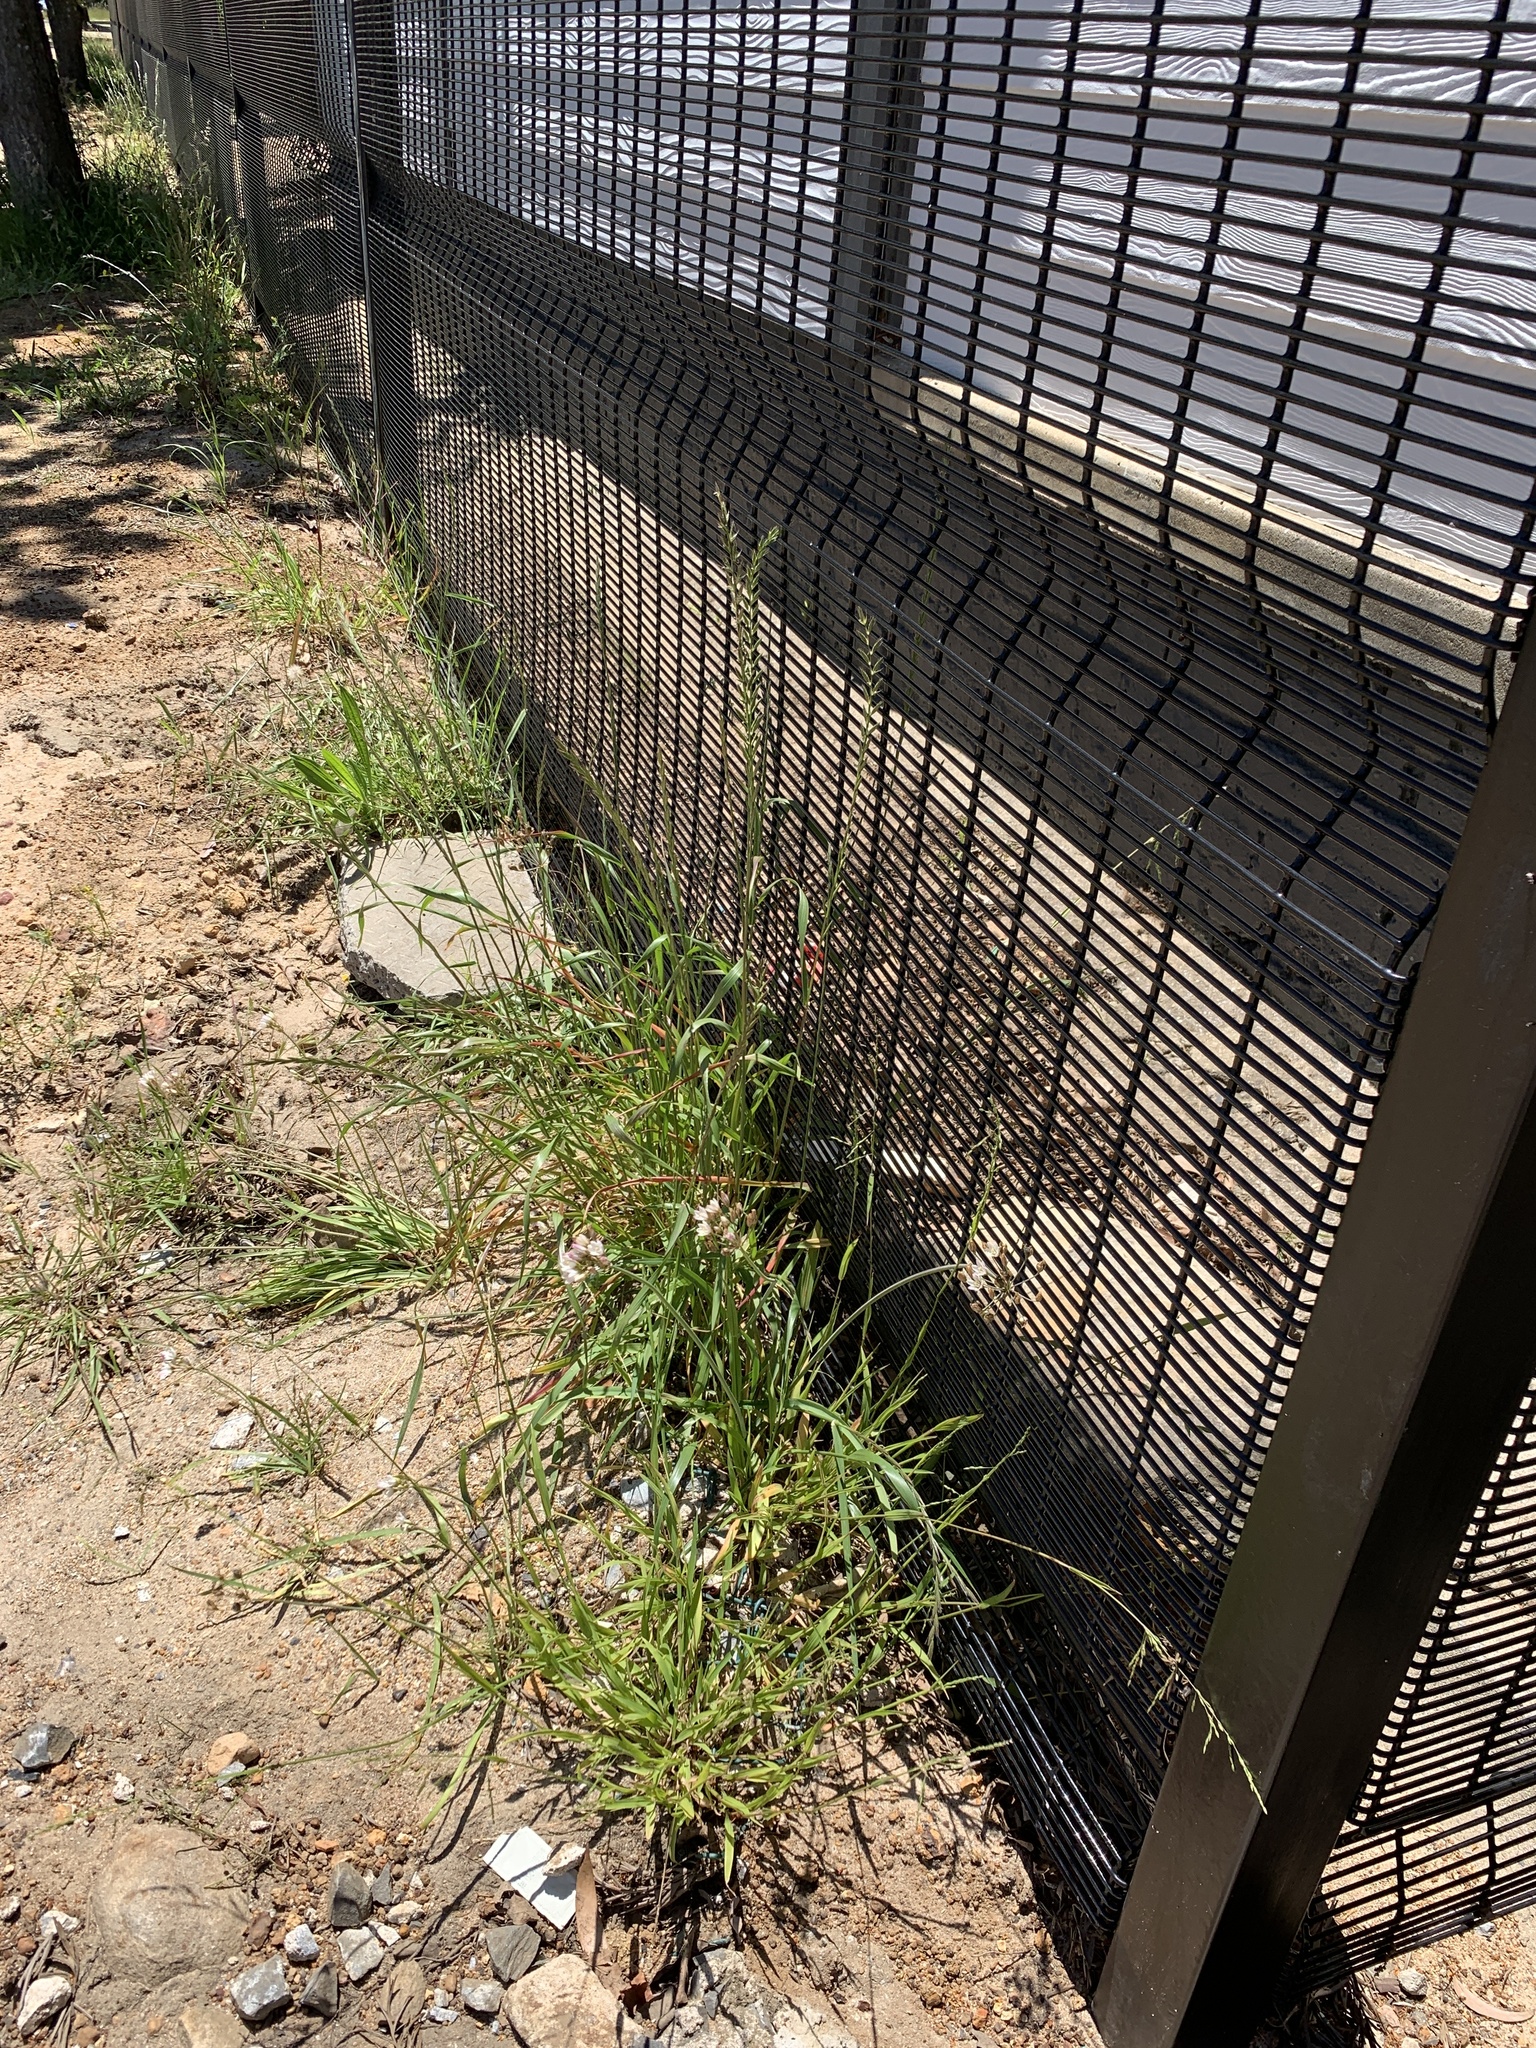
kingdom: Plantae
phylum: Tracheophyta
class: Liliopsida
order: Asparagales
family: Amaryllidaceae
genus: Nothoscordum
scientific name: Nothoscordum gracile
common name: Slender false garlic
